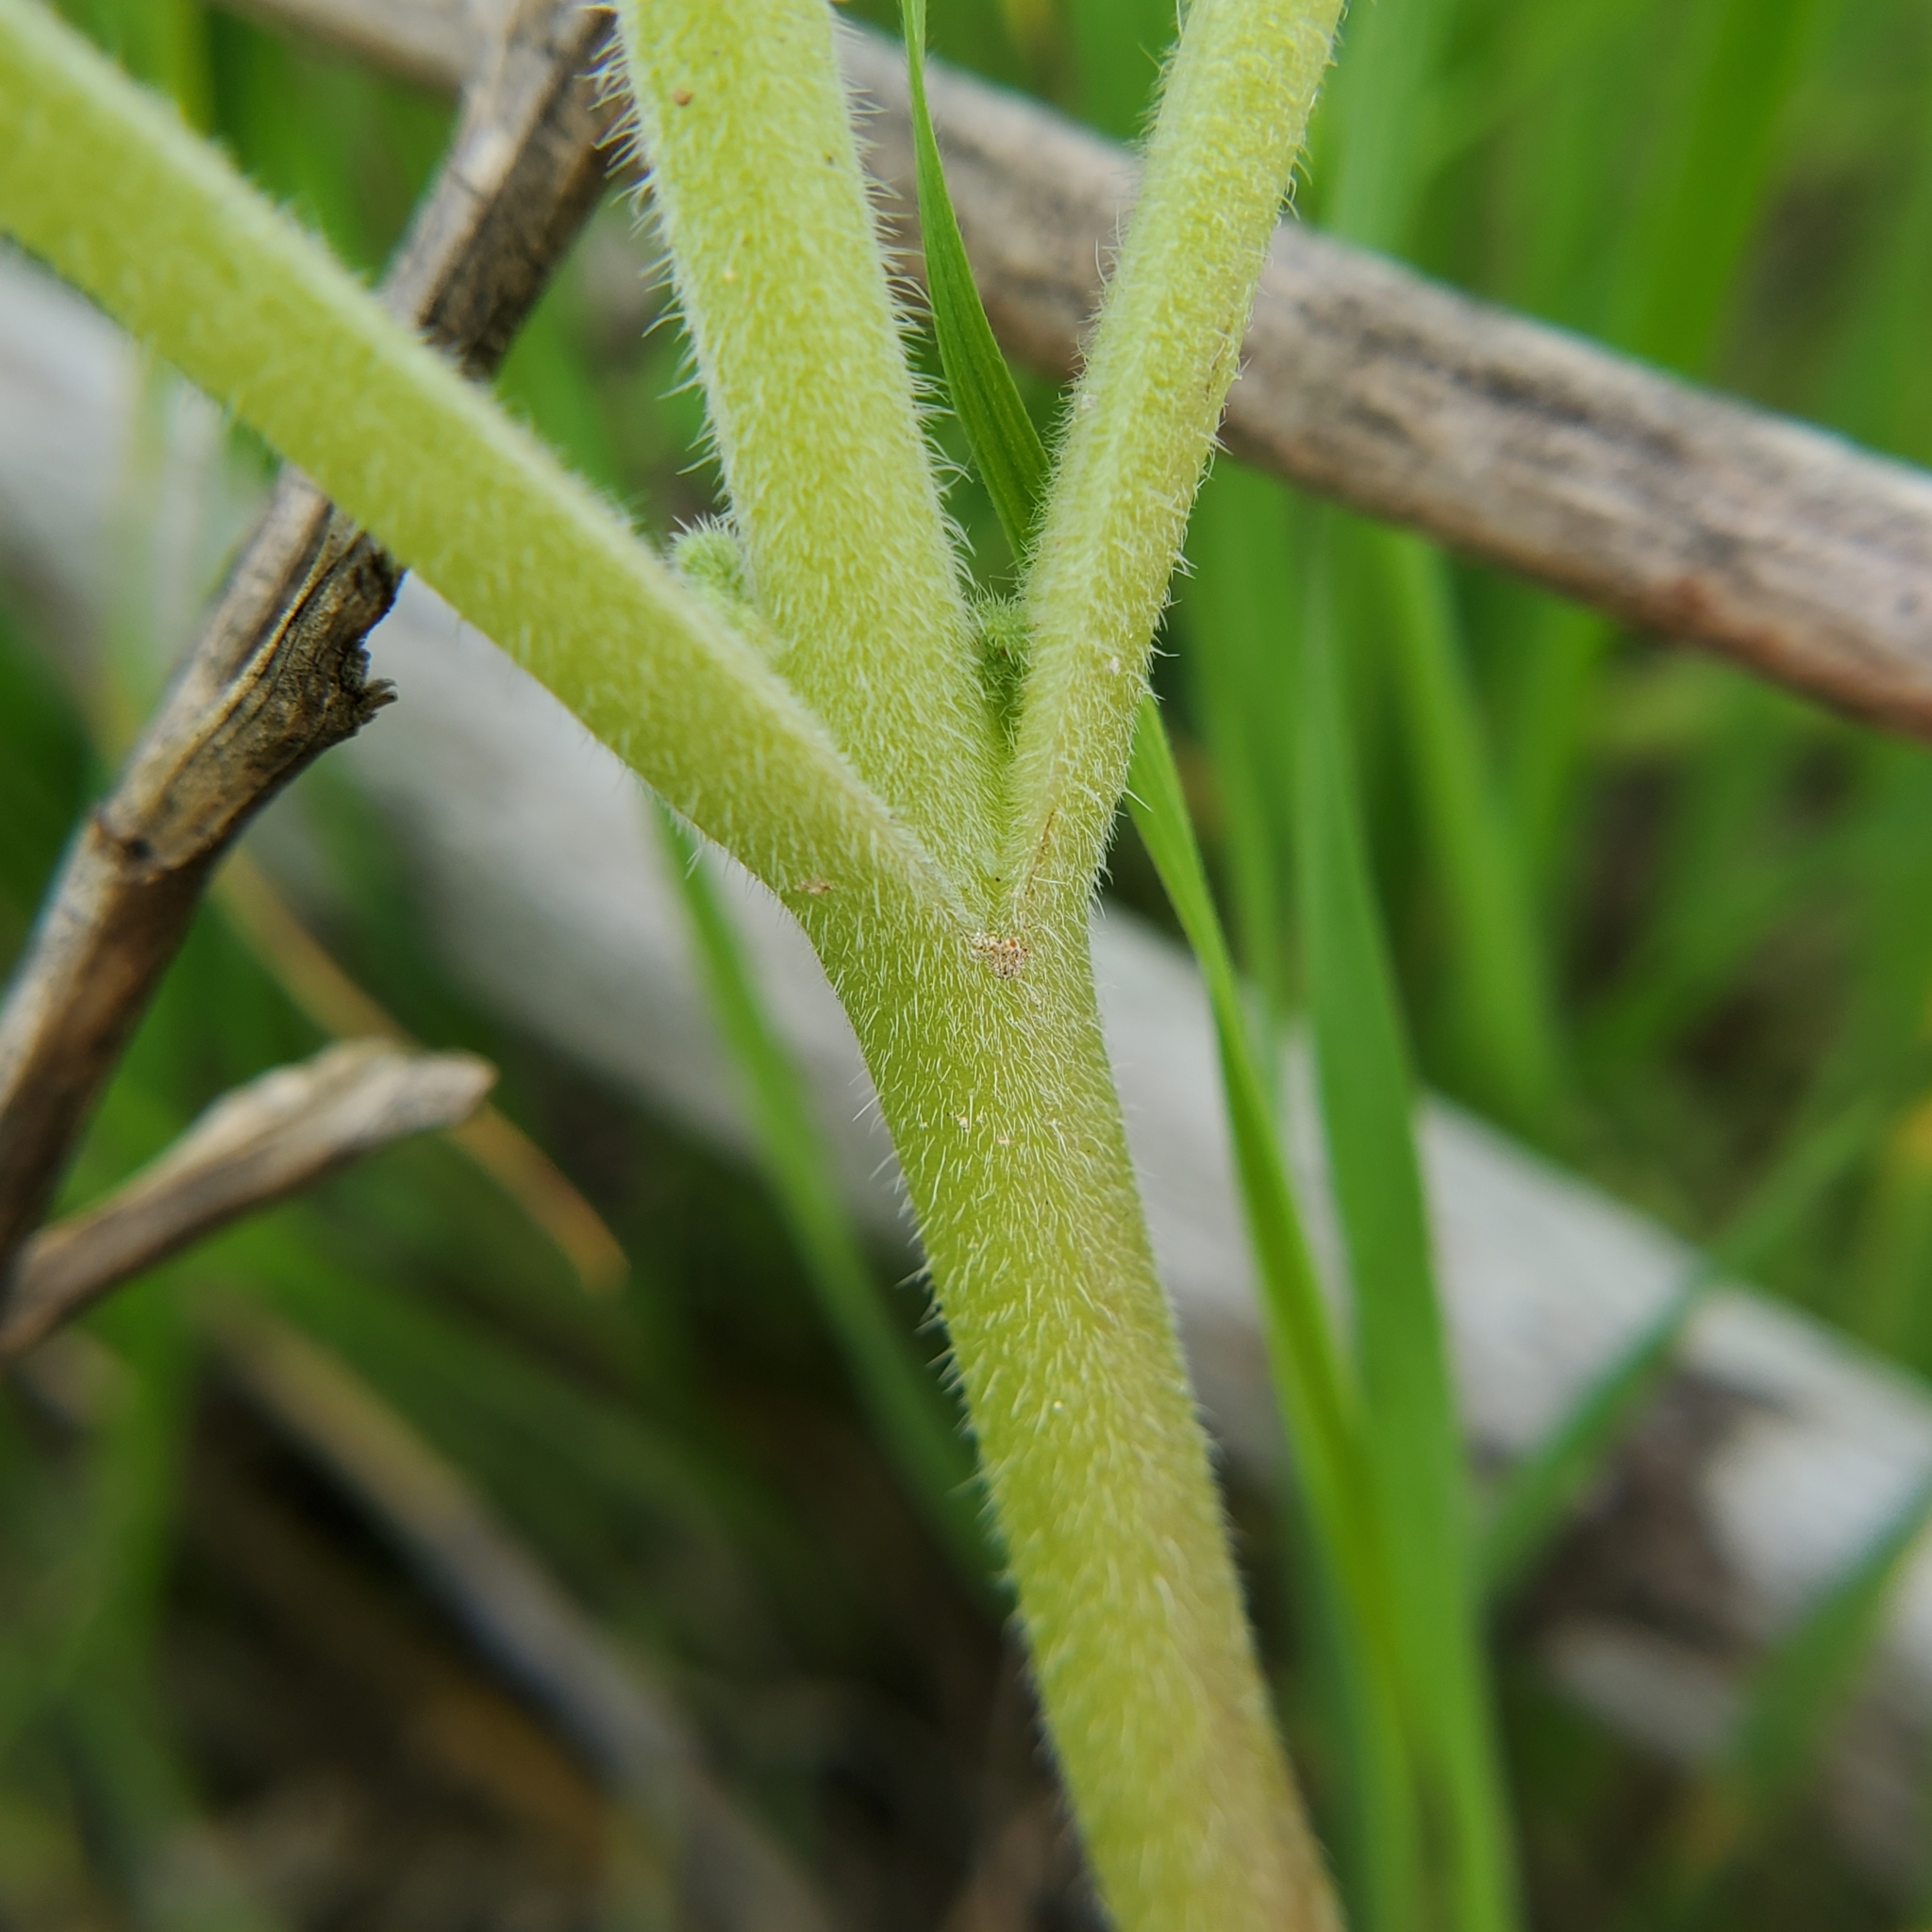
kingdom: Plantae
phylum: Tracheophyta
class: Magnoliopsida
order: Boraginales
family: Hydrophyllaceae
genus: Phacelia
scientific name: Phacelia hubbyi
